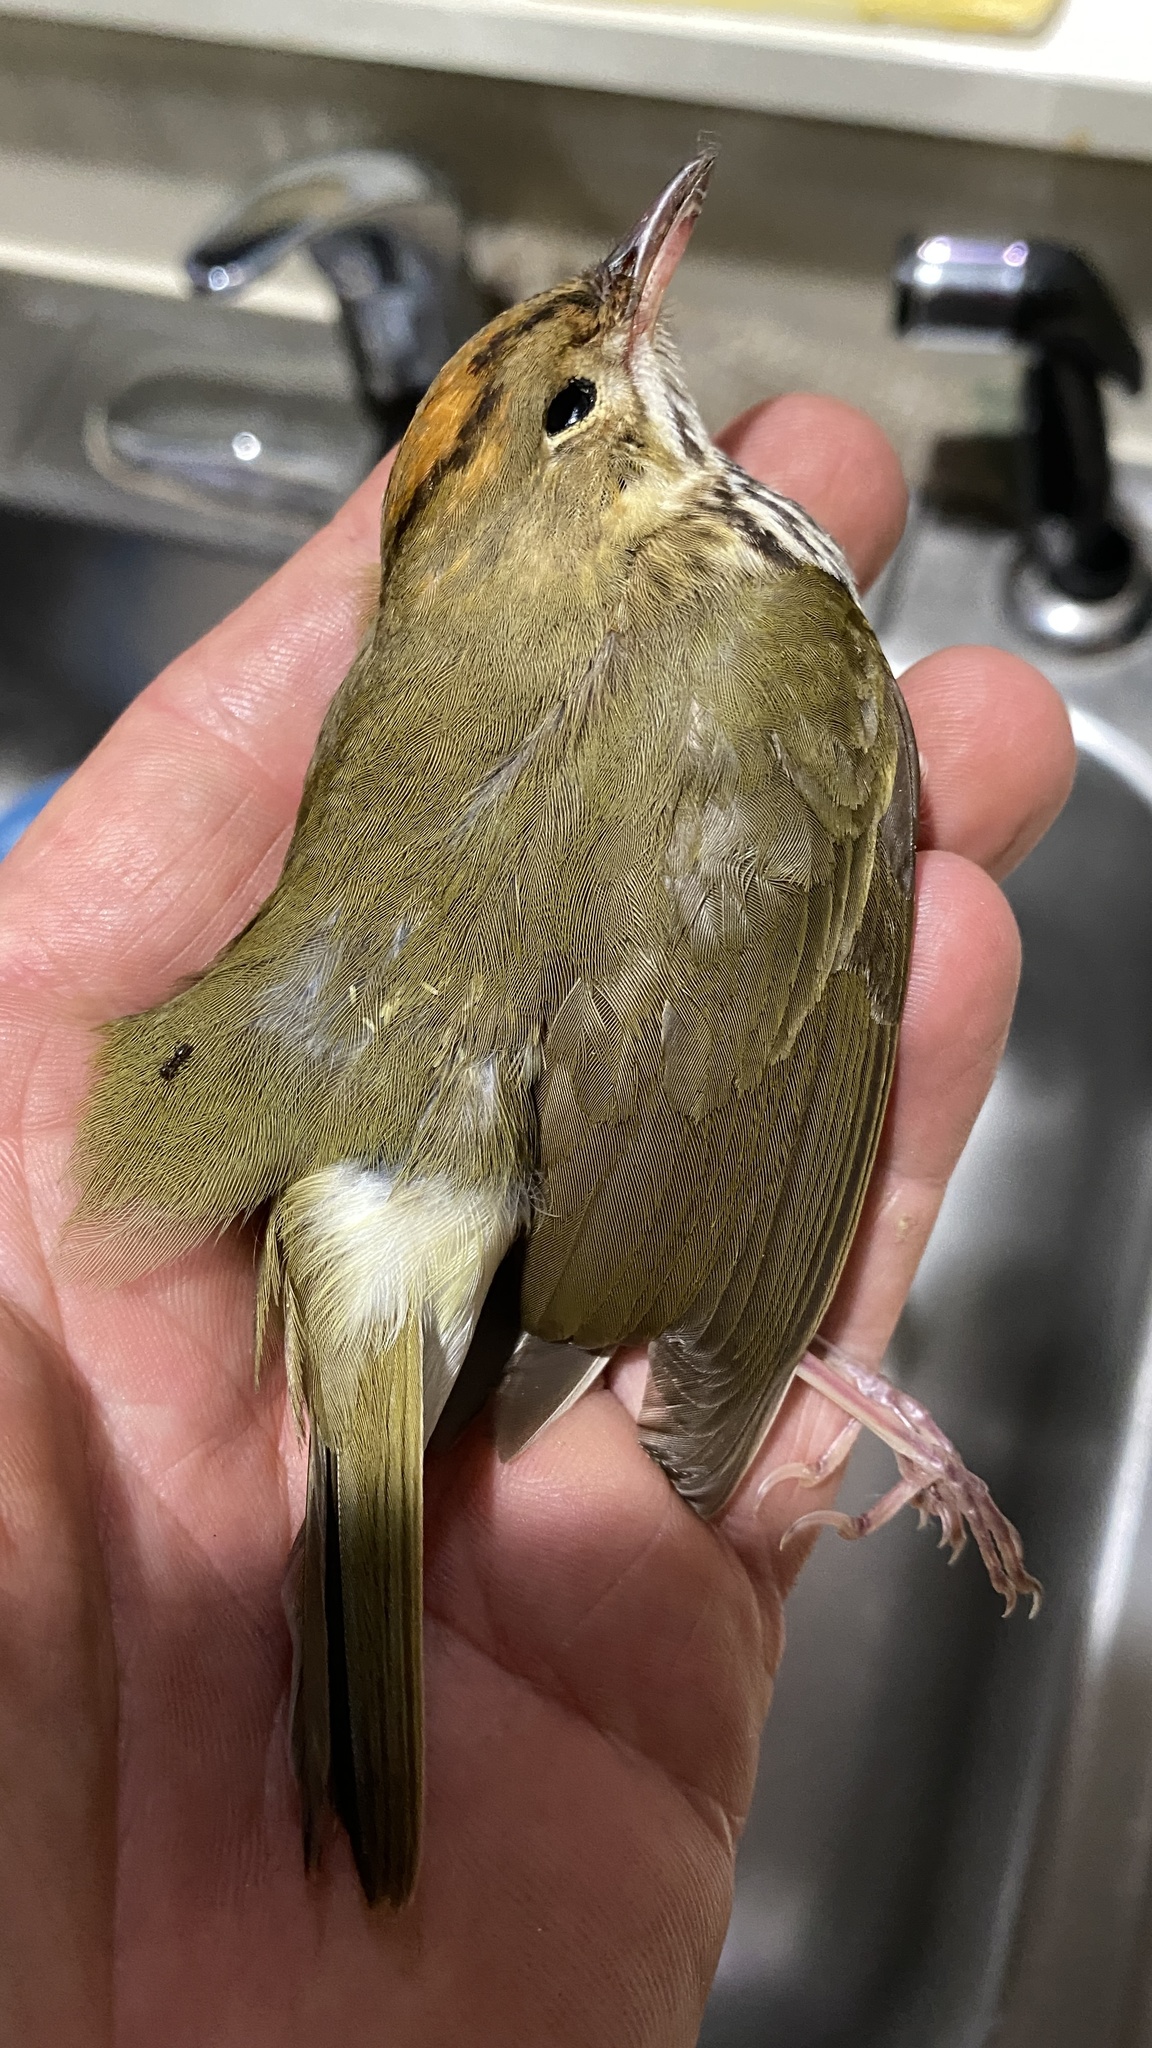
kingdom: Animalia
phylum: Chordata
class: Aves
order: Passeriformes
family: Parulidae
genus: Seiurus
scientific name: Seiurus aurocapilla
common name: Ovenbird
